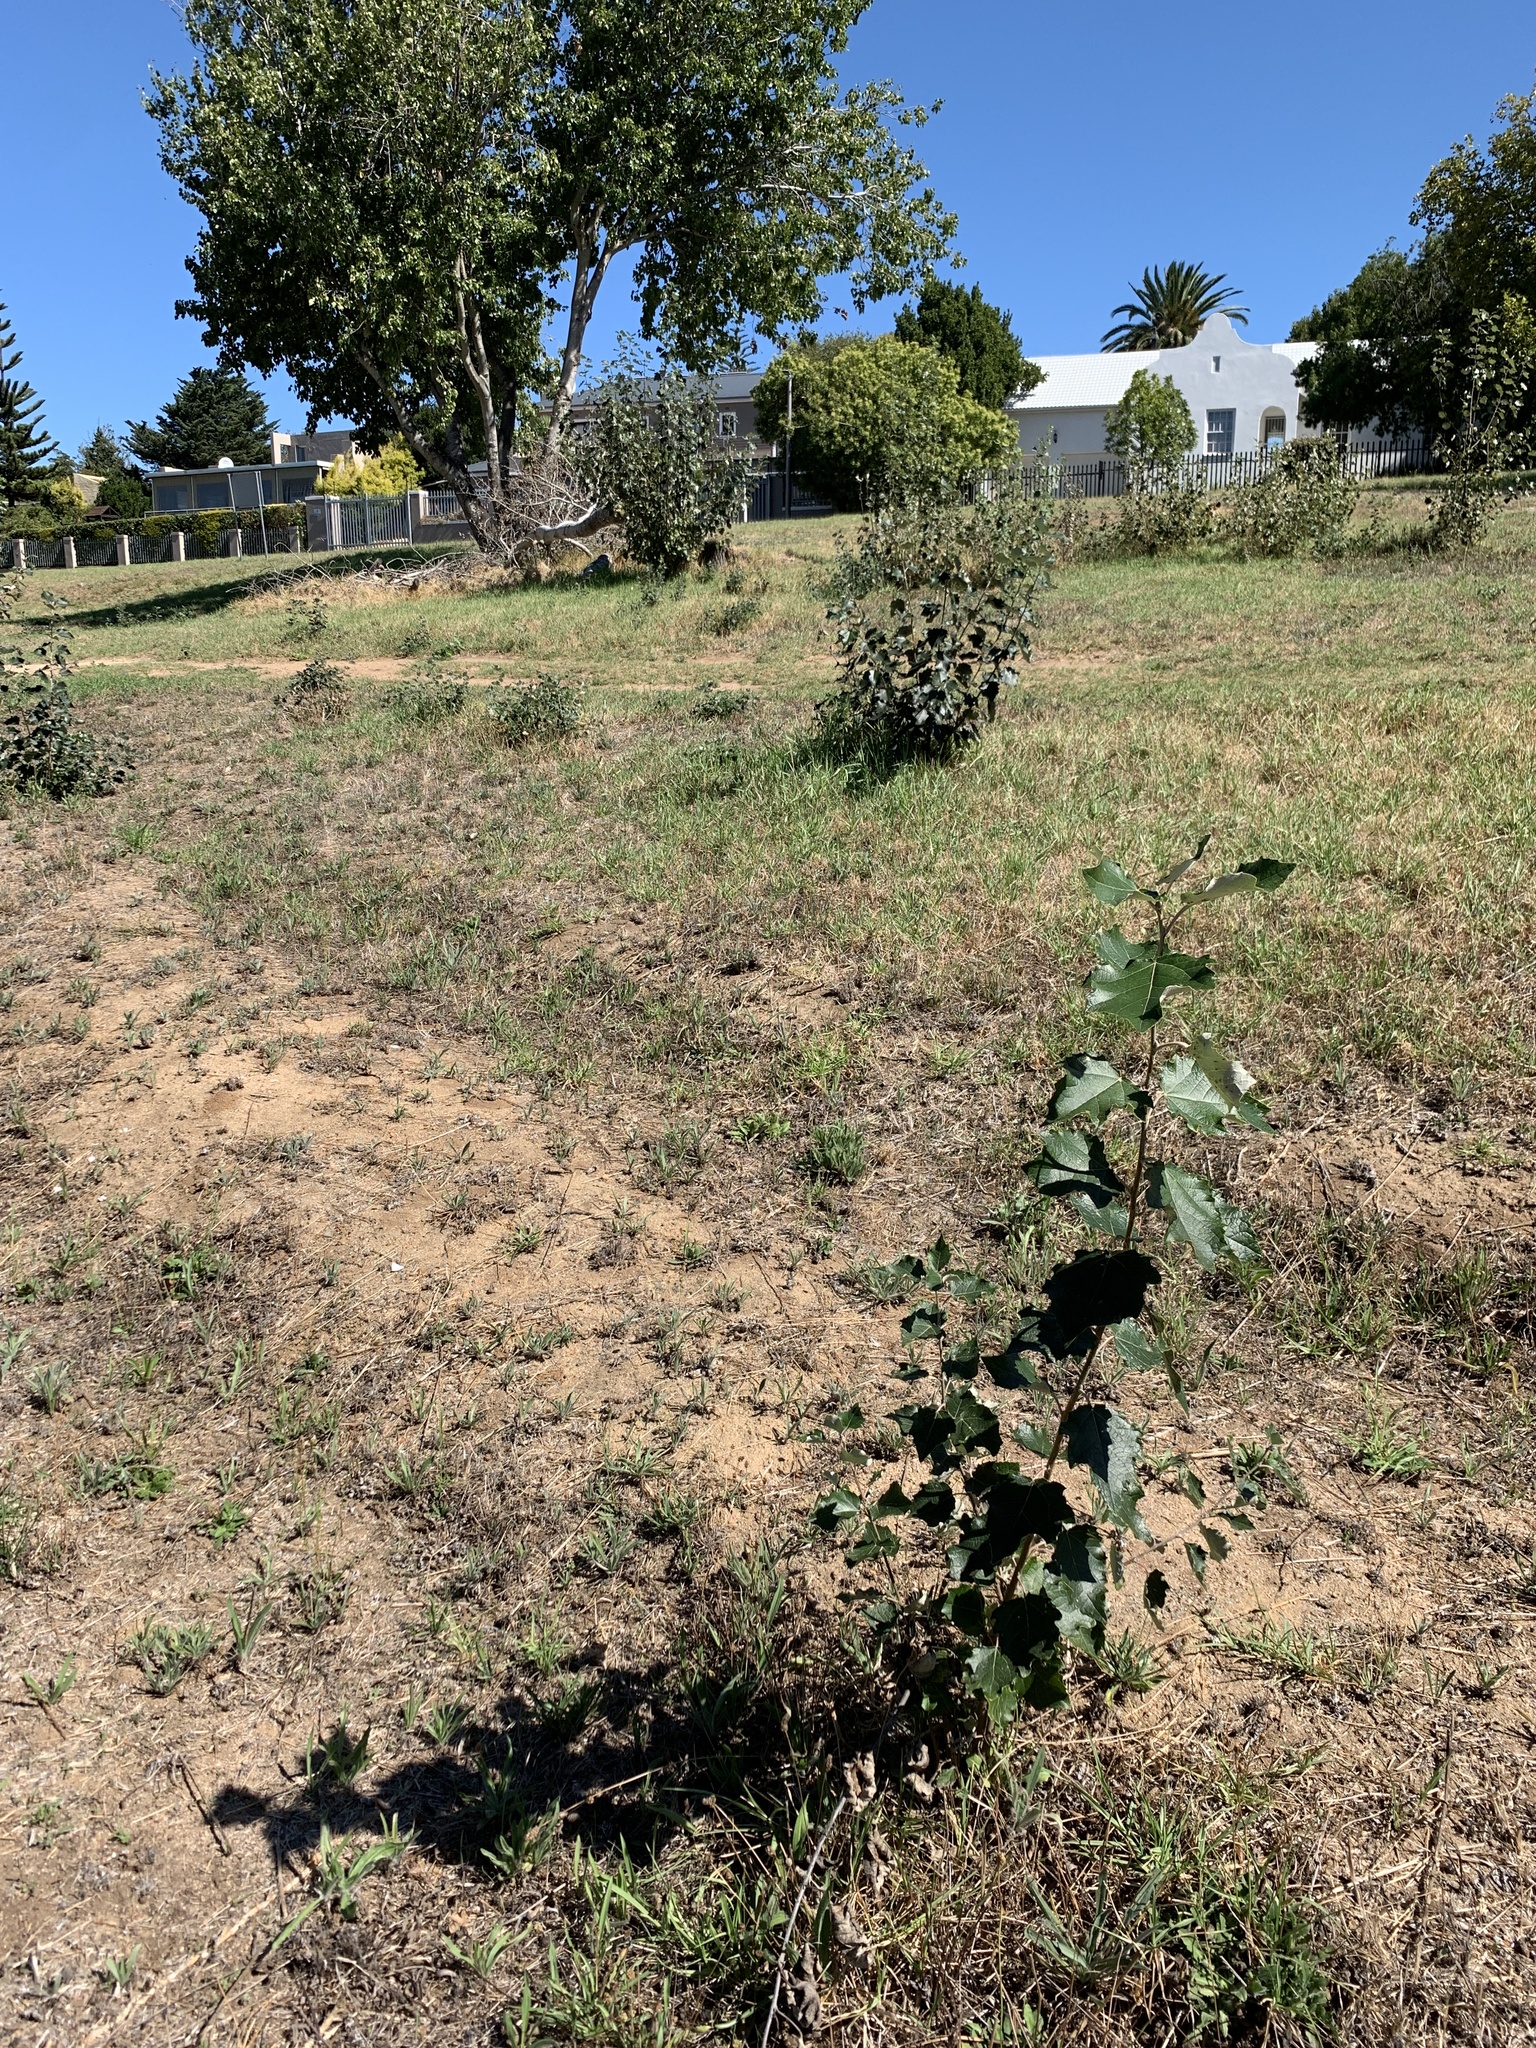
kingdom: Plantae
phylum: Tracheophyta
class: Magnoliopsida
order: Malpighiales
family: Salicaceae
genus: Populus
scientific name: Populus canescens
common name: Gray poplar
